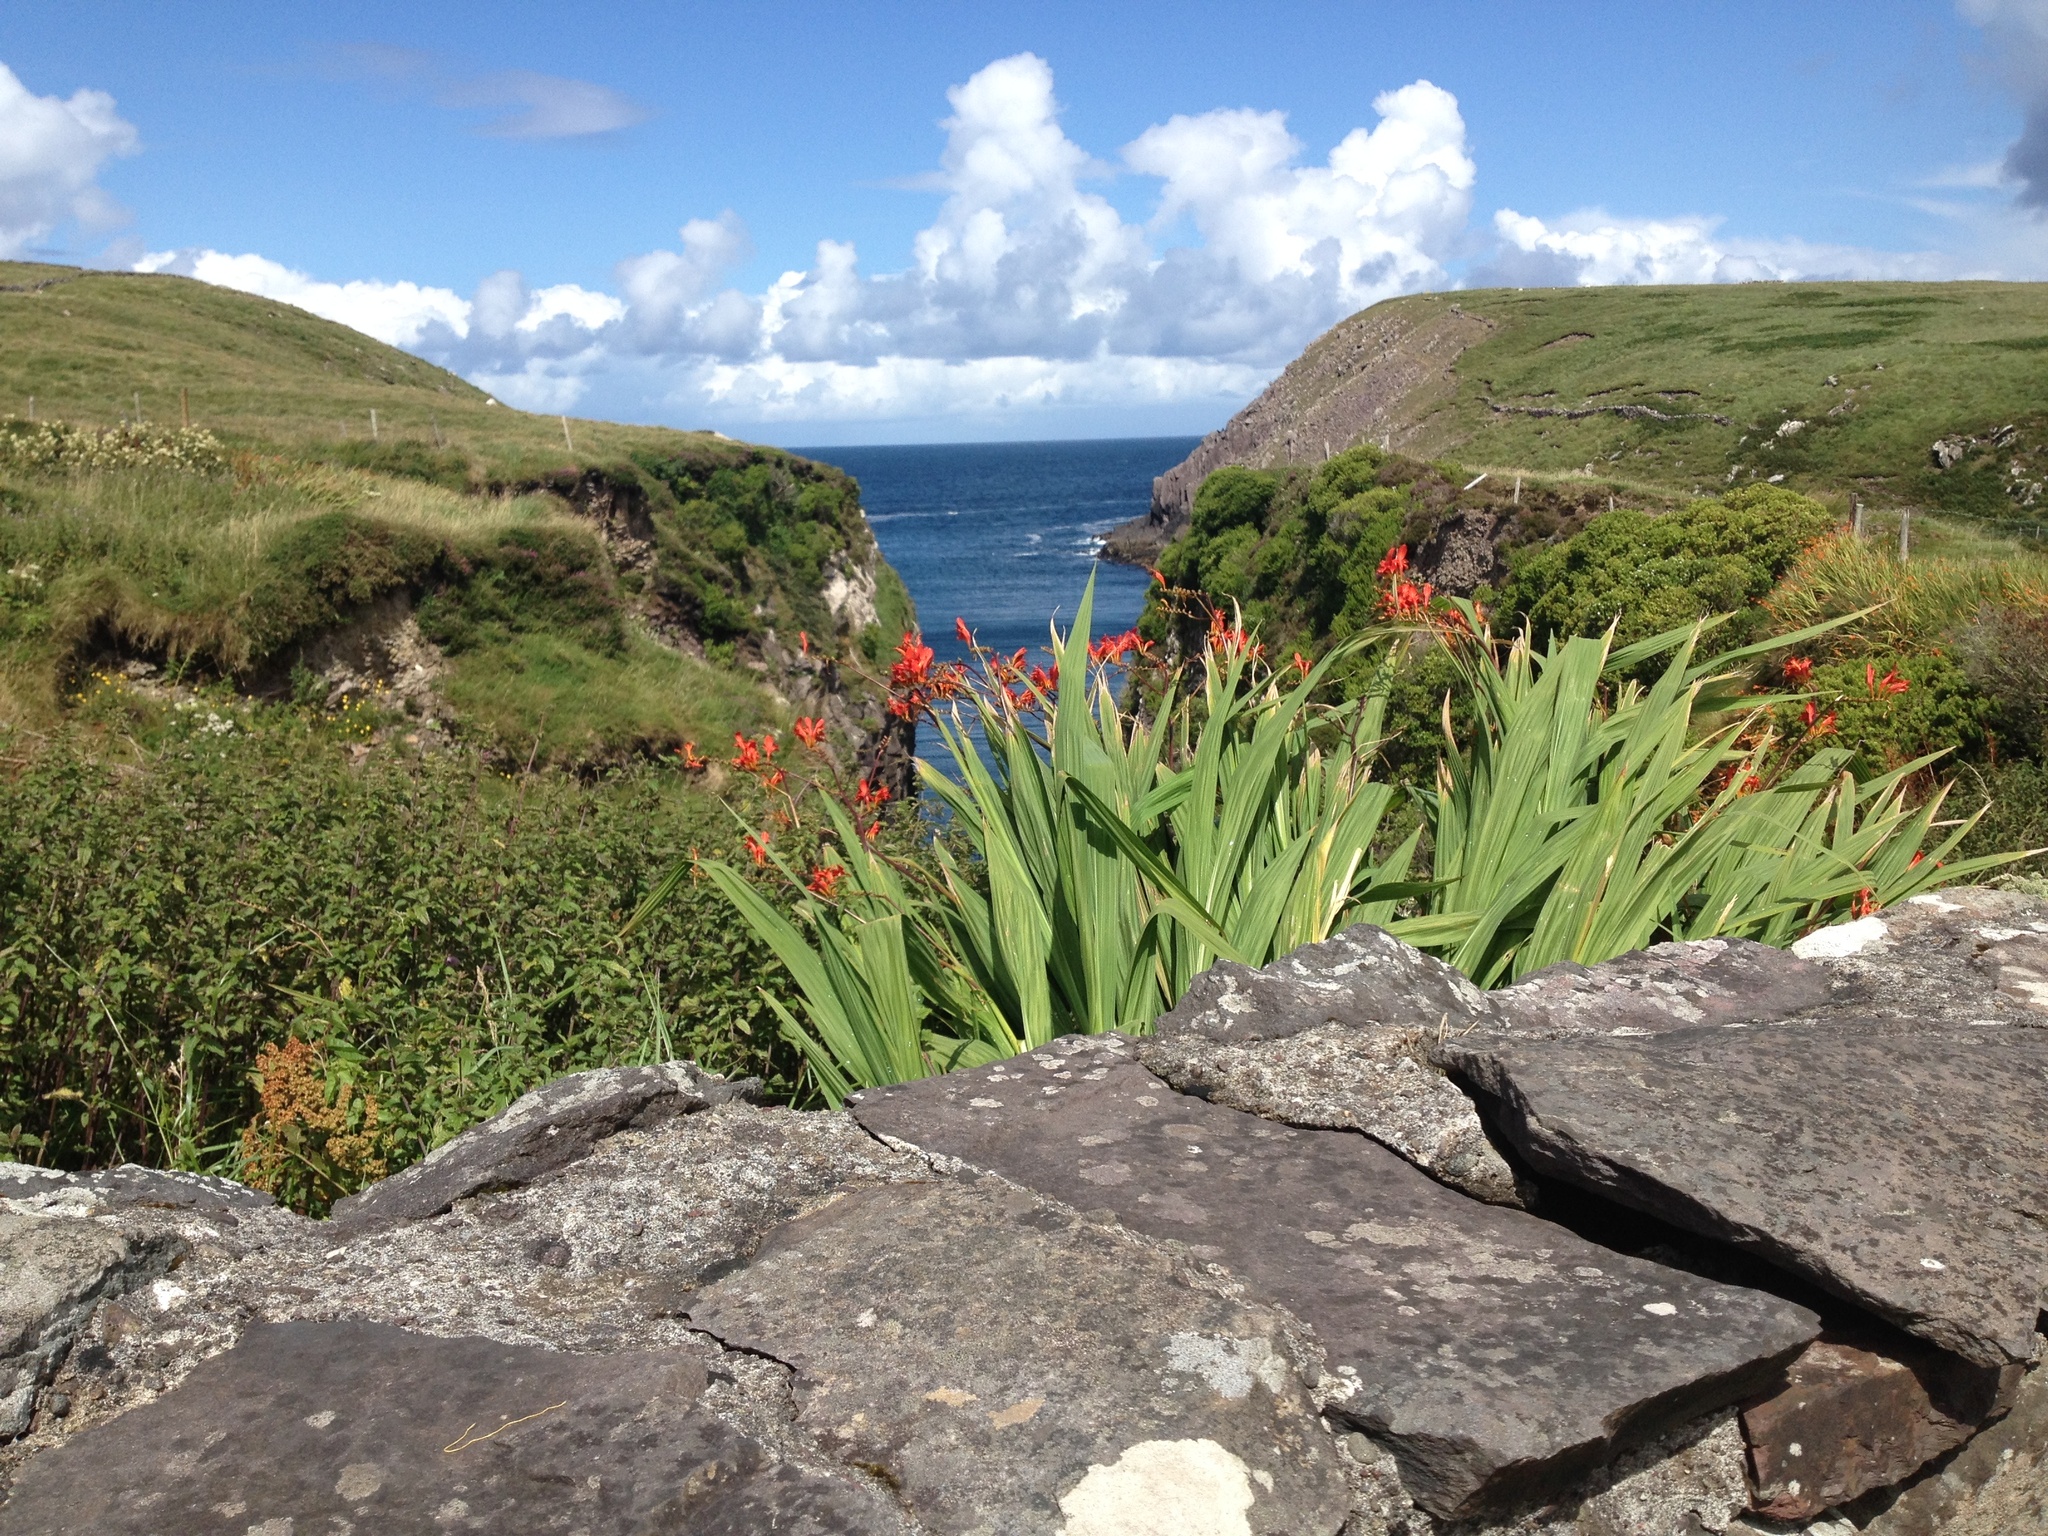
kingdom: Plantae
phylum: Tracheophyta
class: Liliopsida
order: Asparagales
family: Iridaceae
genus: Crocosmia
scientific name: Crocosmia
